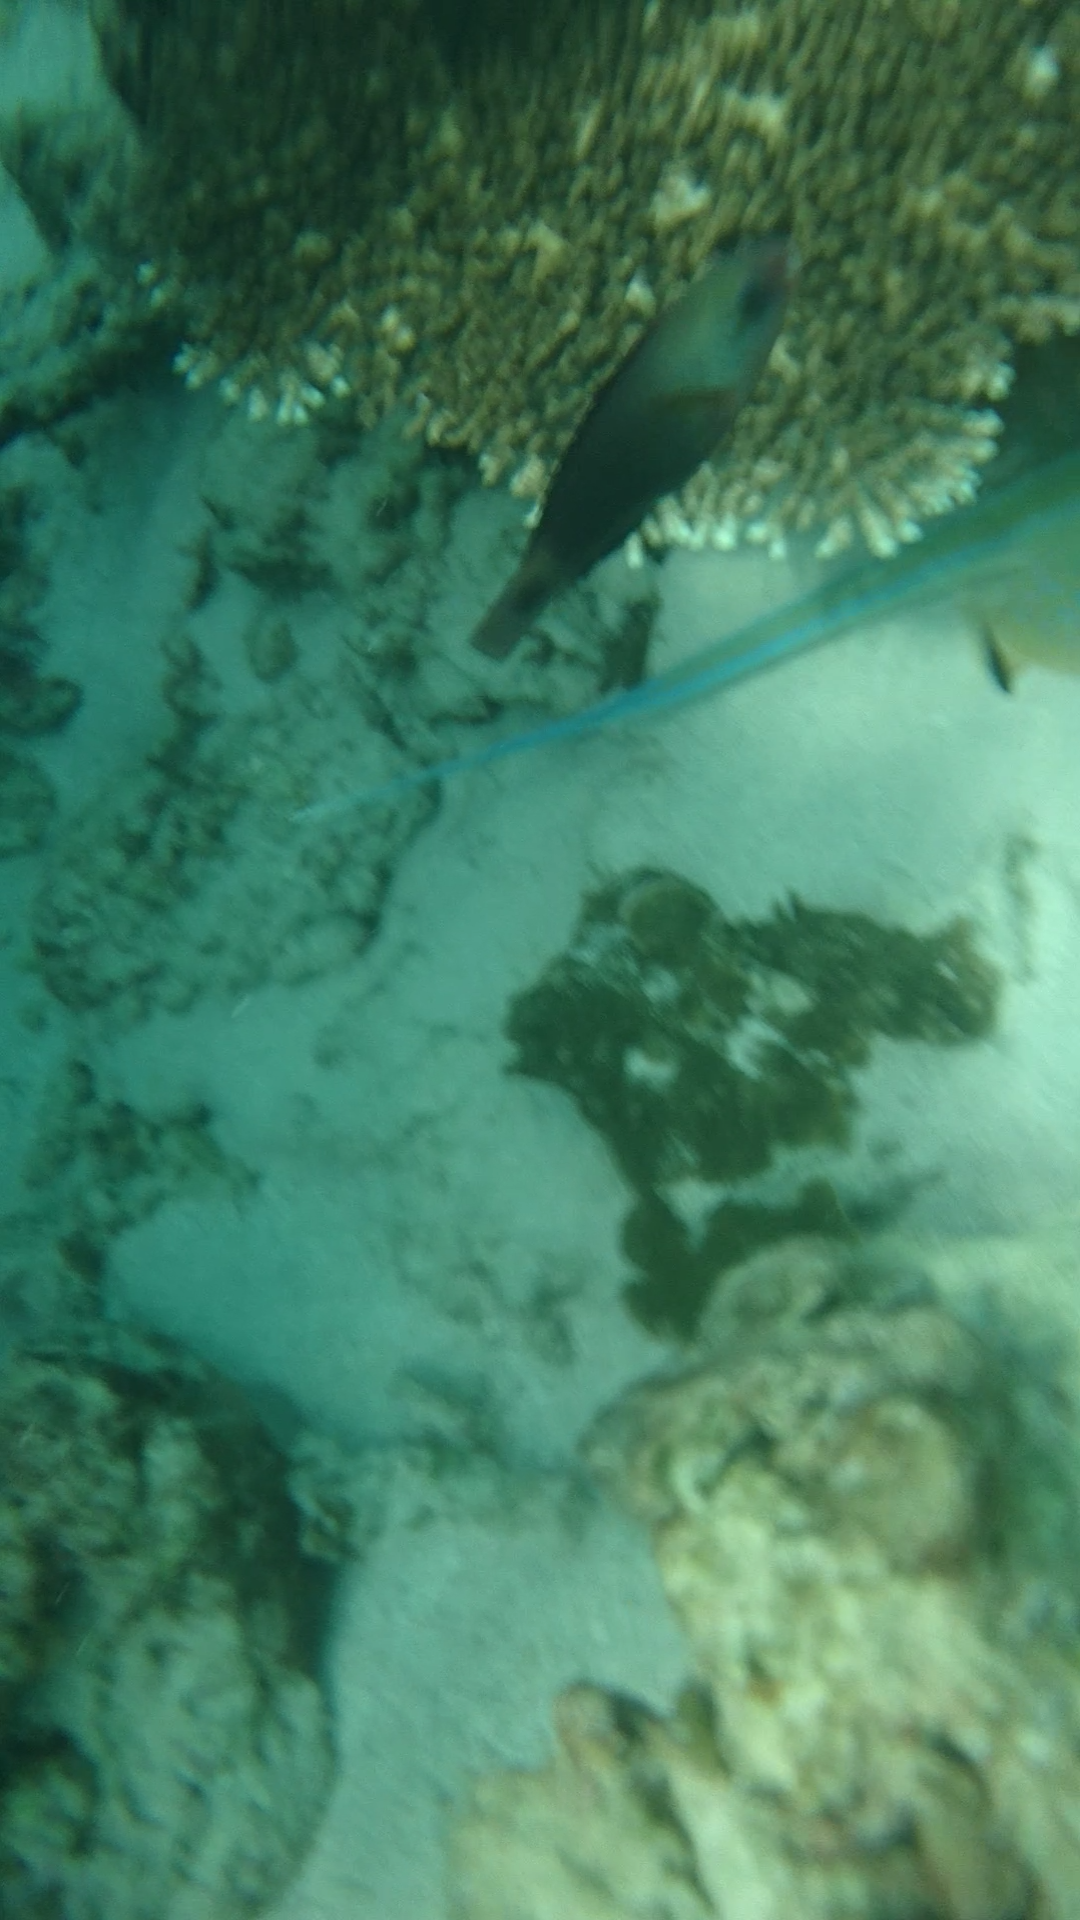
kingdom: Animalia
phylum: Chordata
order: Perciformes
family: Scaridae
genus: Chlorurus
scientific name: Chlorurus spilurus
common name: Bullethead parrotfish
